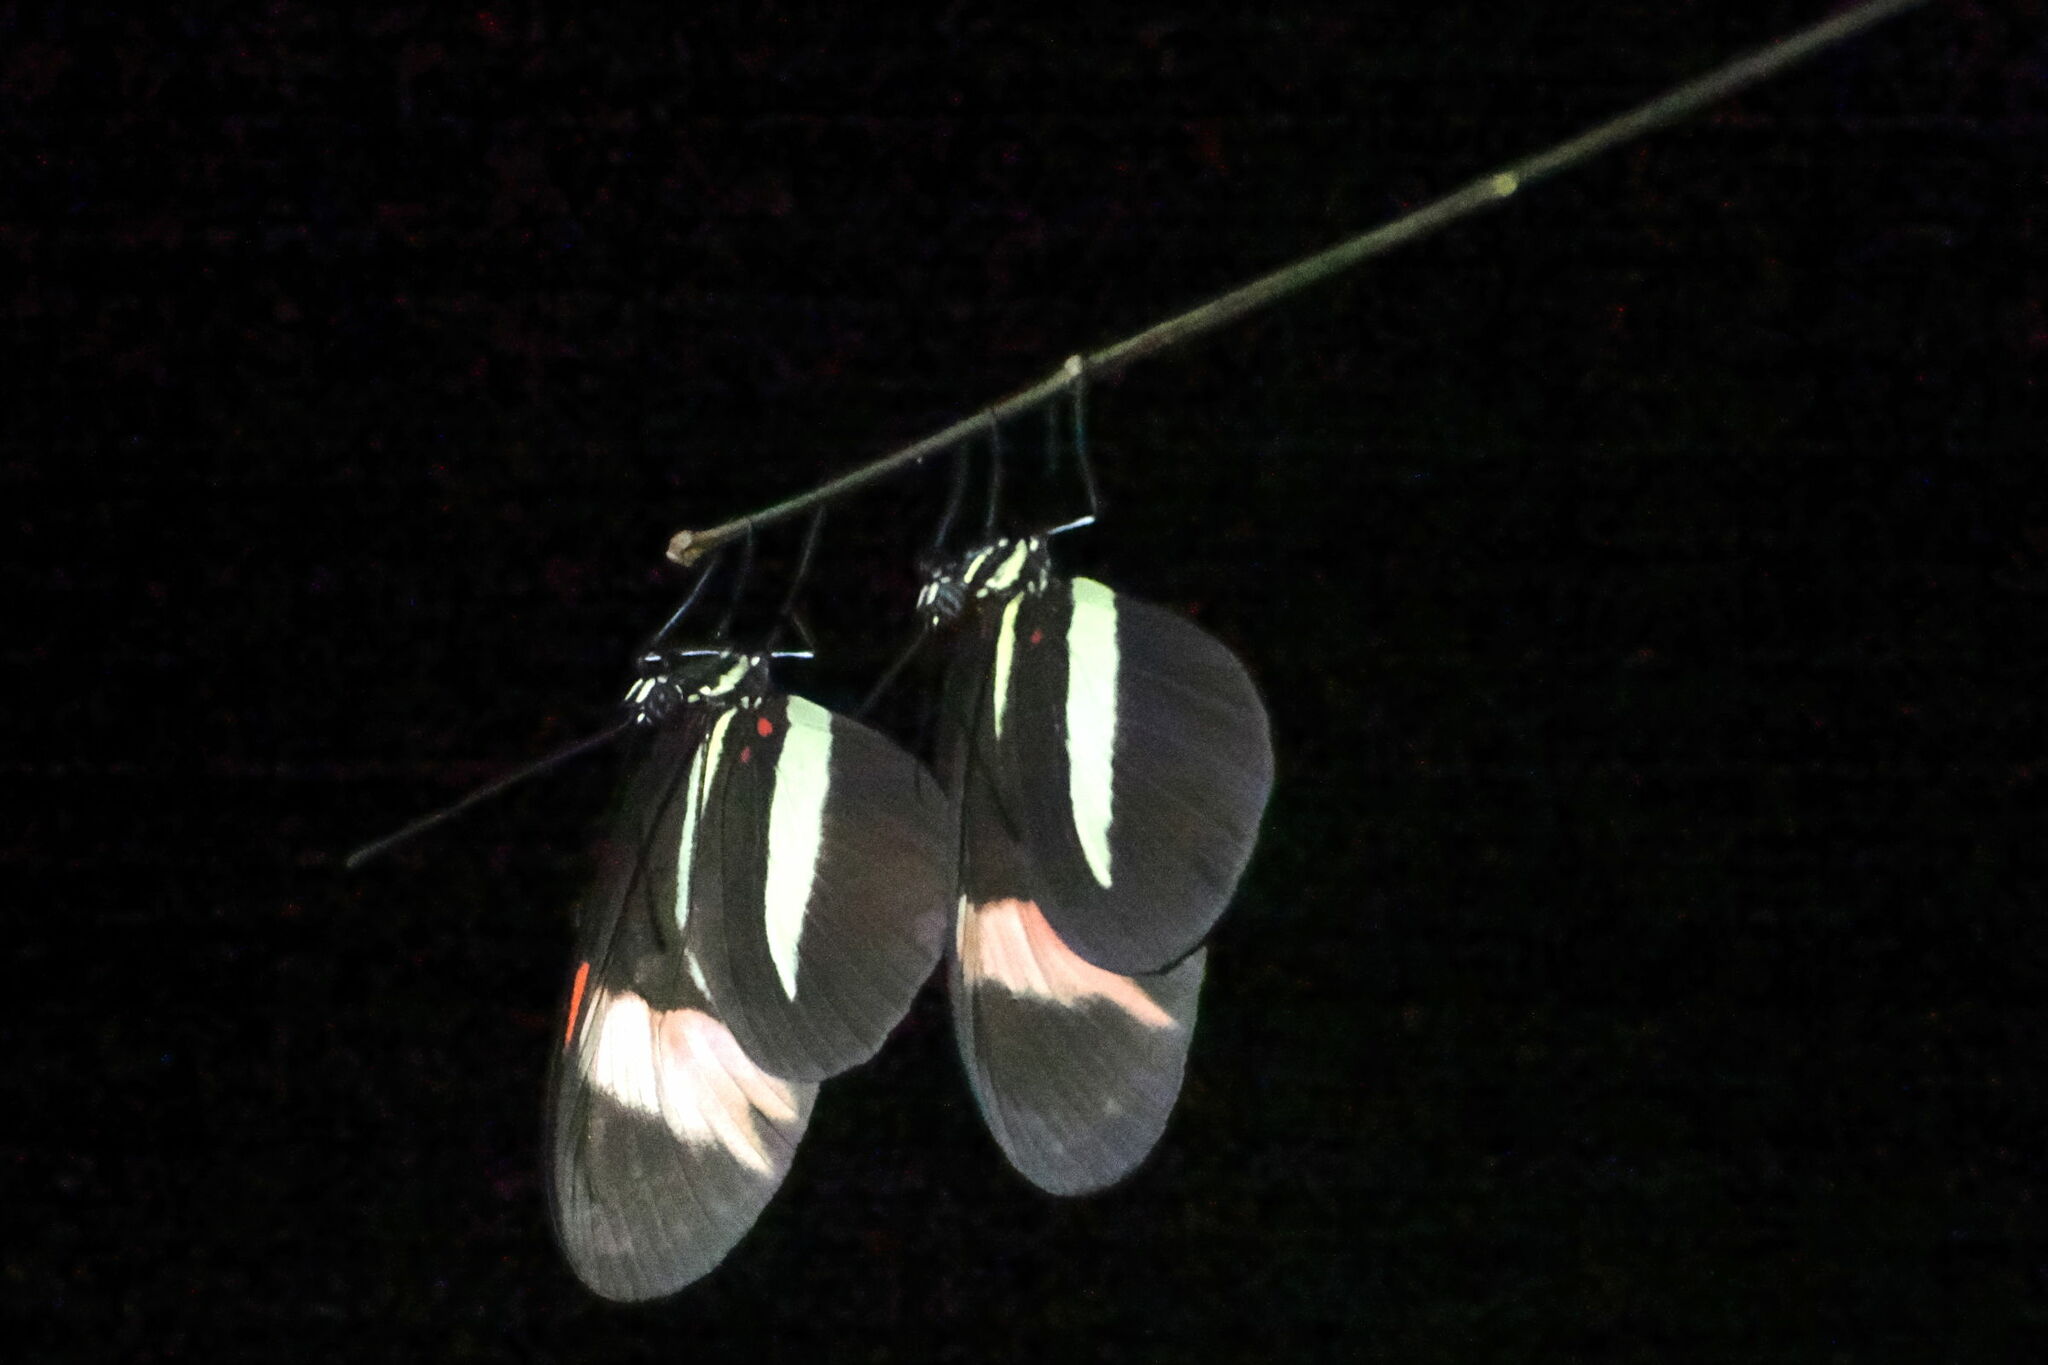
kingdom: Animalia
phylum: Arthropoda
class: Insecta
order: Lepidoptera
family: Nymphalidae
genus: Heliconius
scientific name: Heliconius melpomene
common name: Postman
